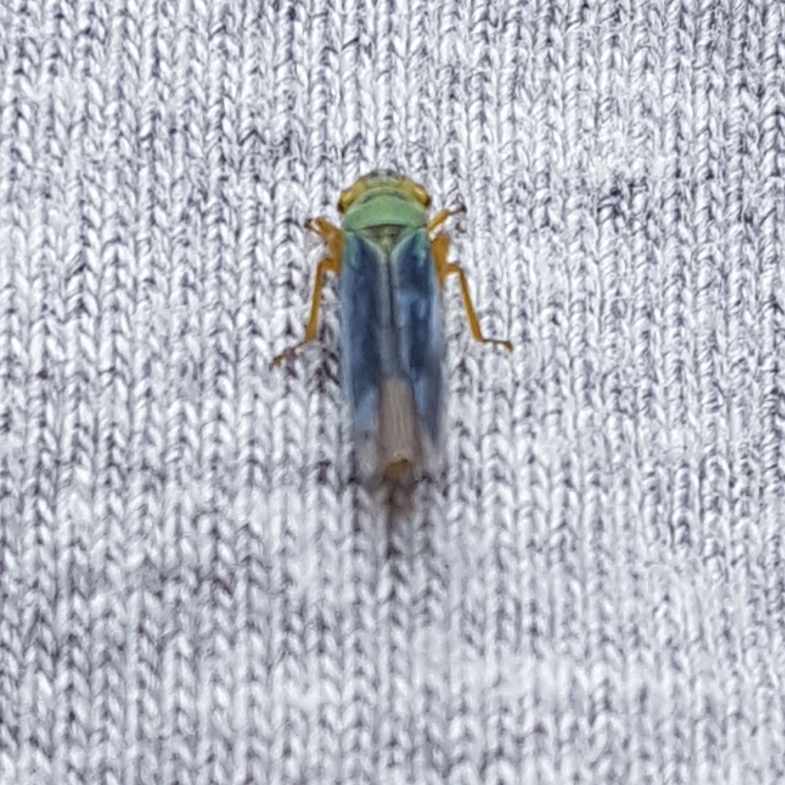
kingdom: Animalia
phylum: Arthropoda
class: Insecta
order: Hemiptera
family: Cicadellidae
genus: Cicadella
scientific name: Cicadella viridis
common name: Leafhopper
